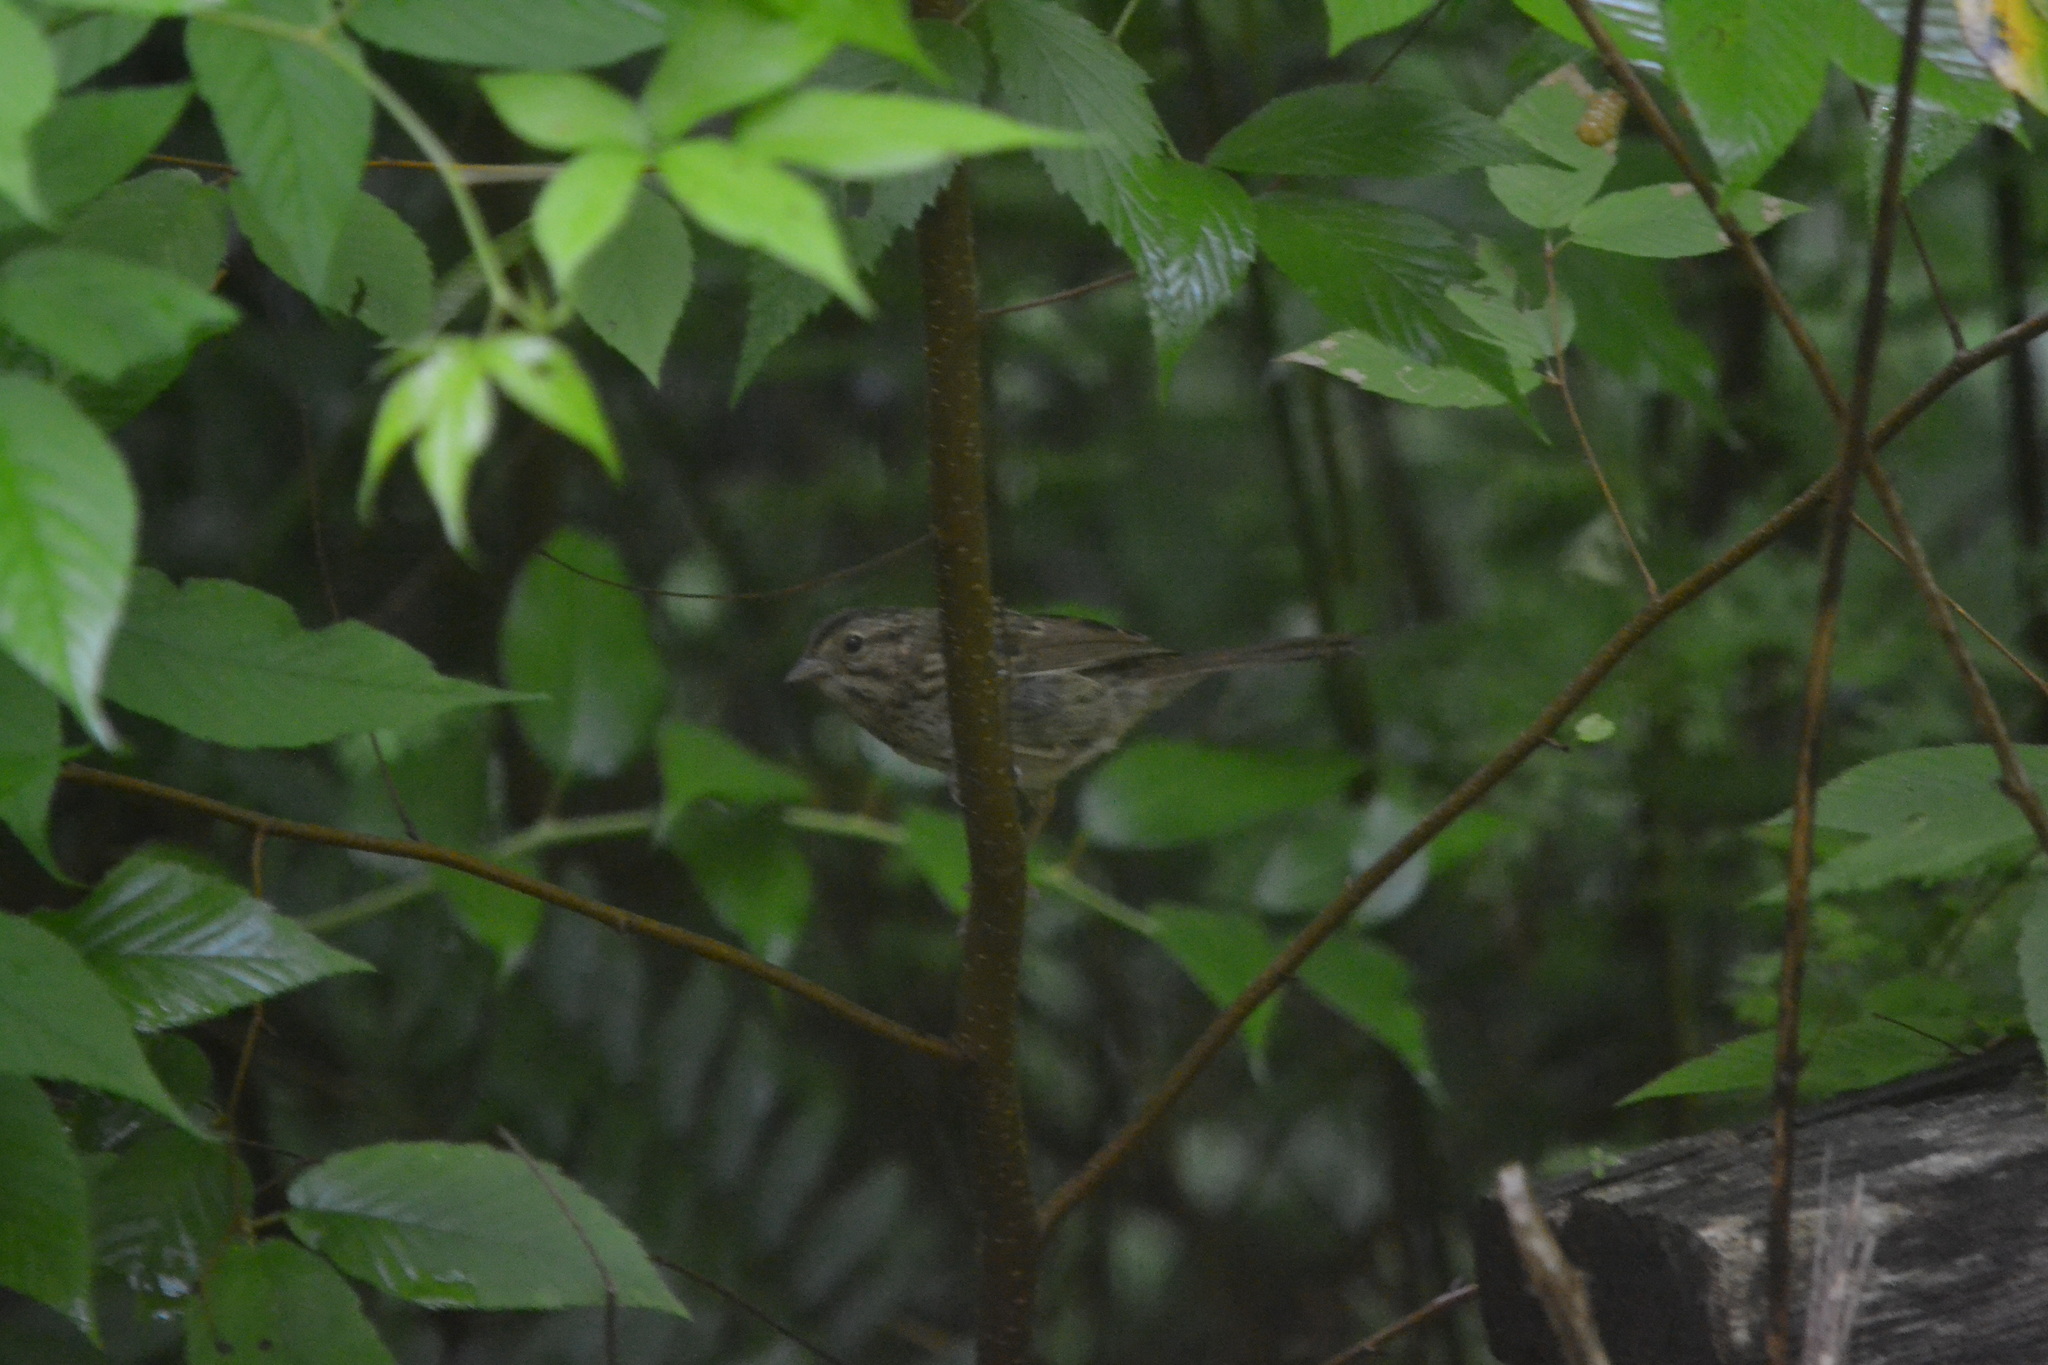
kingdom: Animalia
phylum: Chordata
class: Aves
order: Passeriformes
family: Passerellidae
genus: Melospiza
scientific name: Melospiza melodia
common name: Song sparrow
